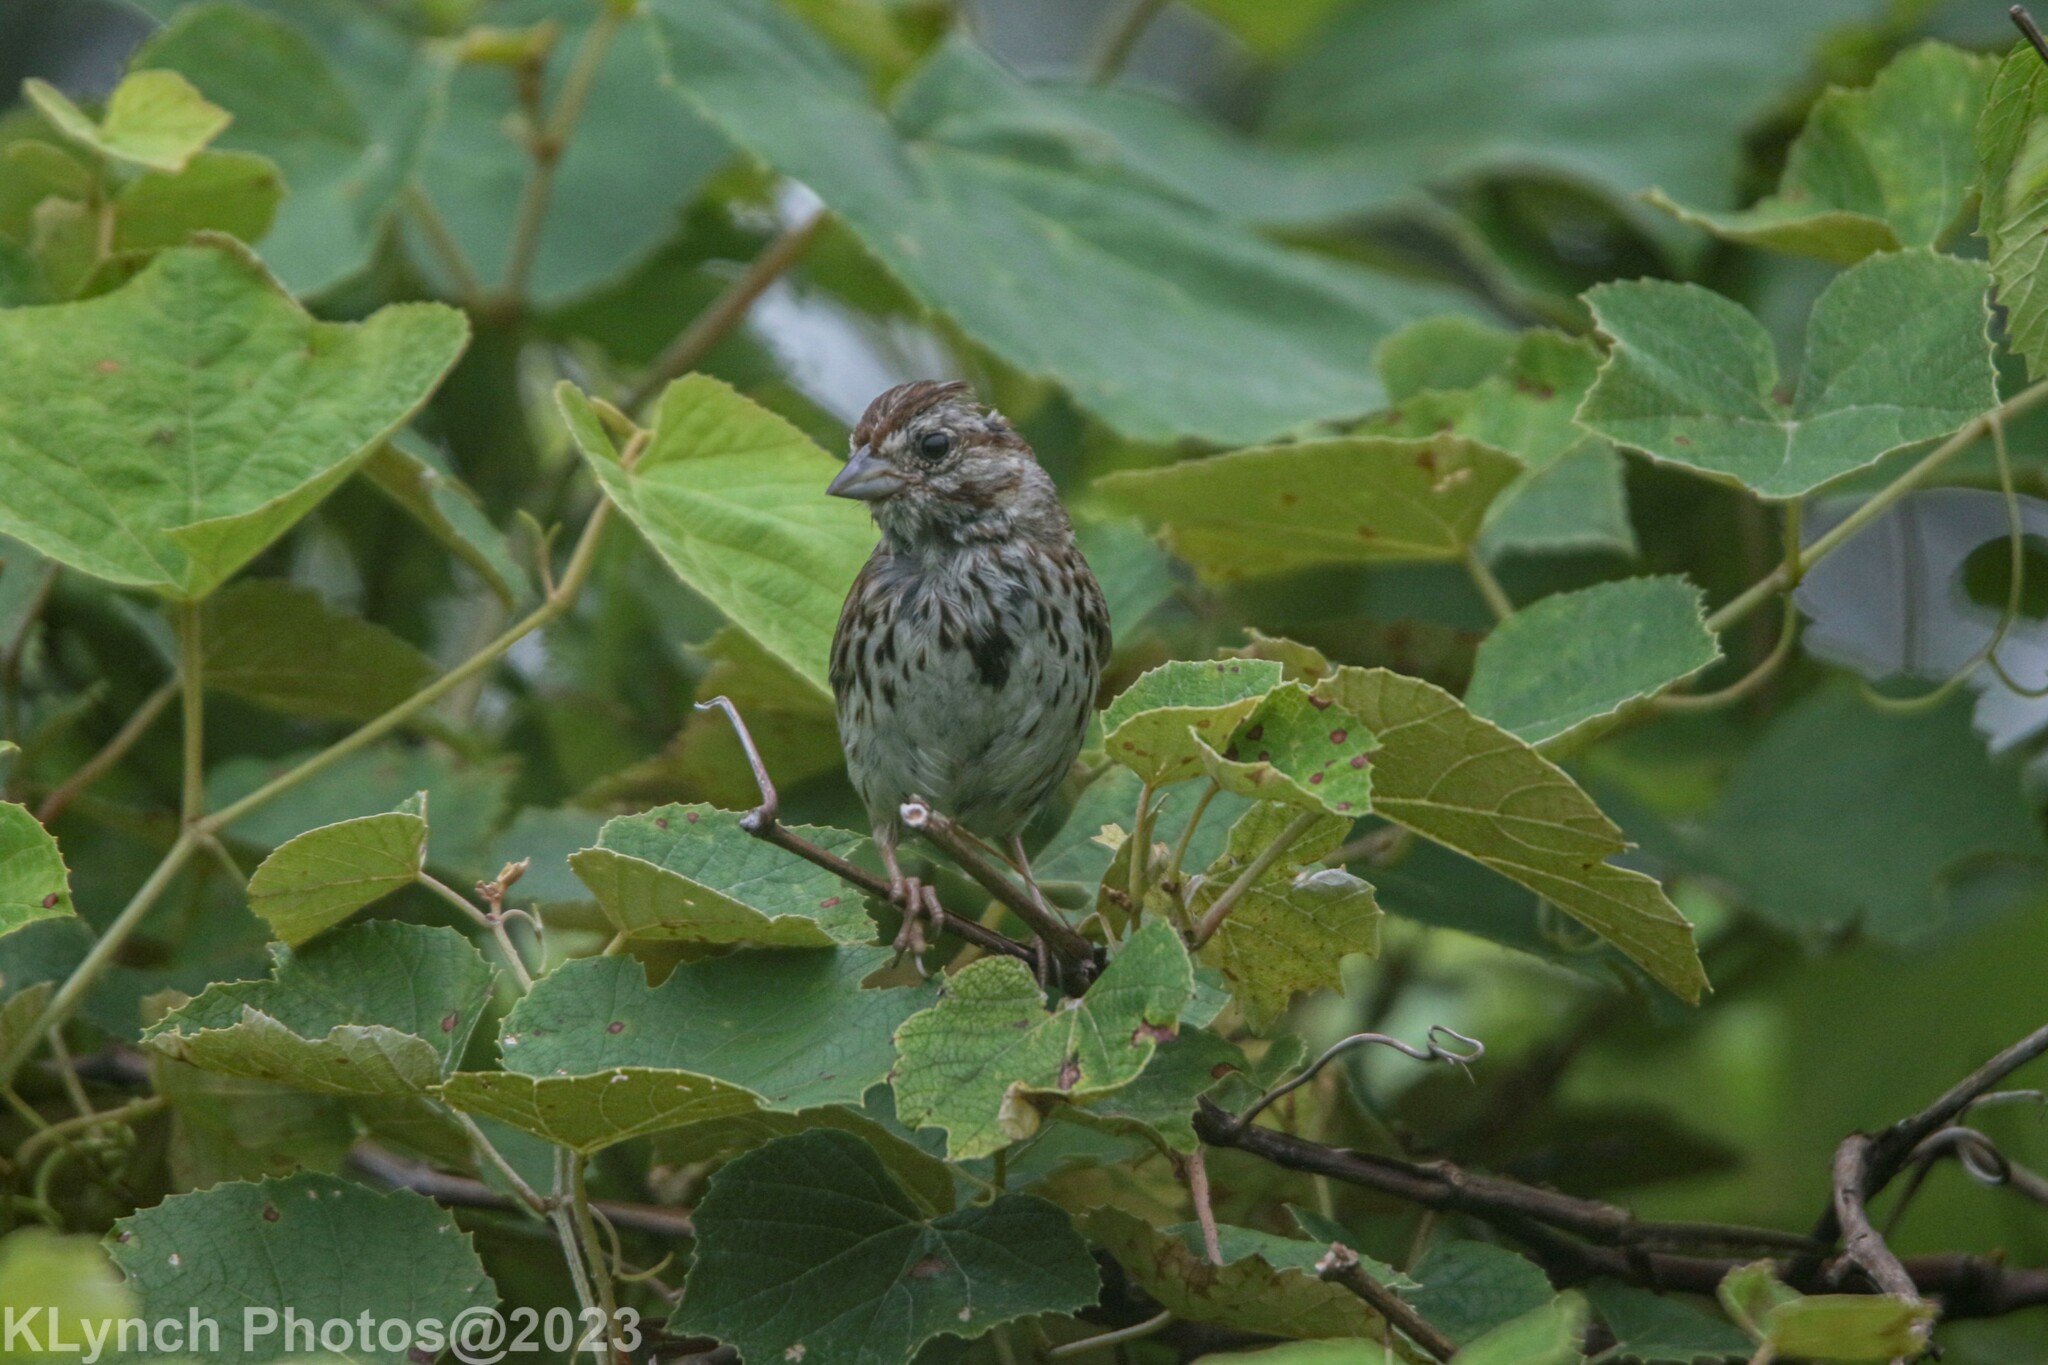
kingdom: Animalia
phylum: Chordata
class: Aves
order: Passeriformes
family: Passerellidae
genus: Melospiza
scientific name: Melospiza melodia
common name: Song sparrow
